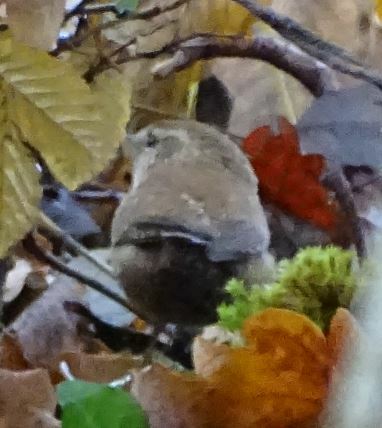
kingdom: Animalia
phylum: Chordata
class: Aves
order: Passeriformes
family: Troglodytidae
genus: Troglodytes
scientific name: Troglodytes troglodytes
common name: Eurasian wren
